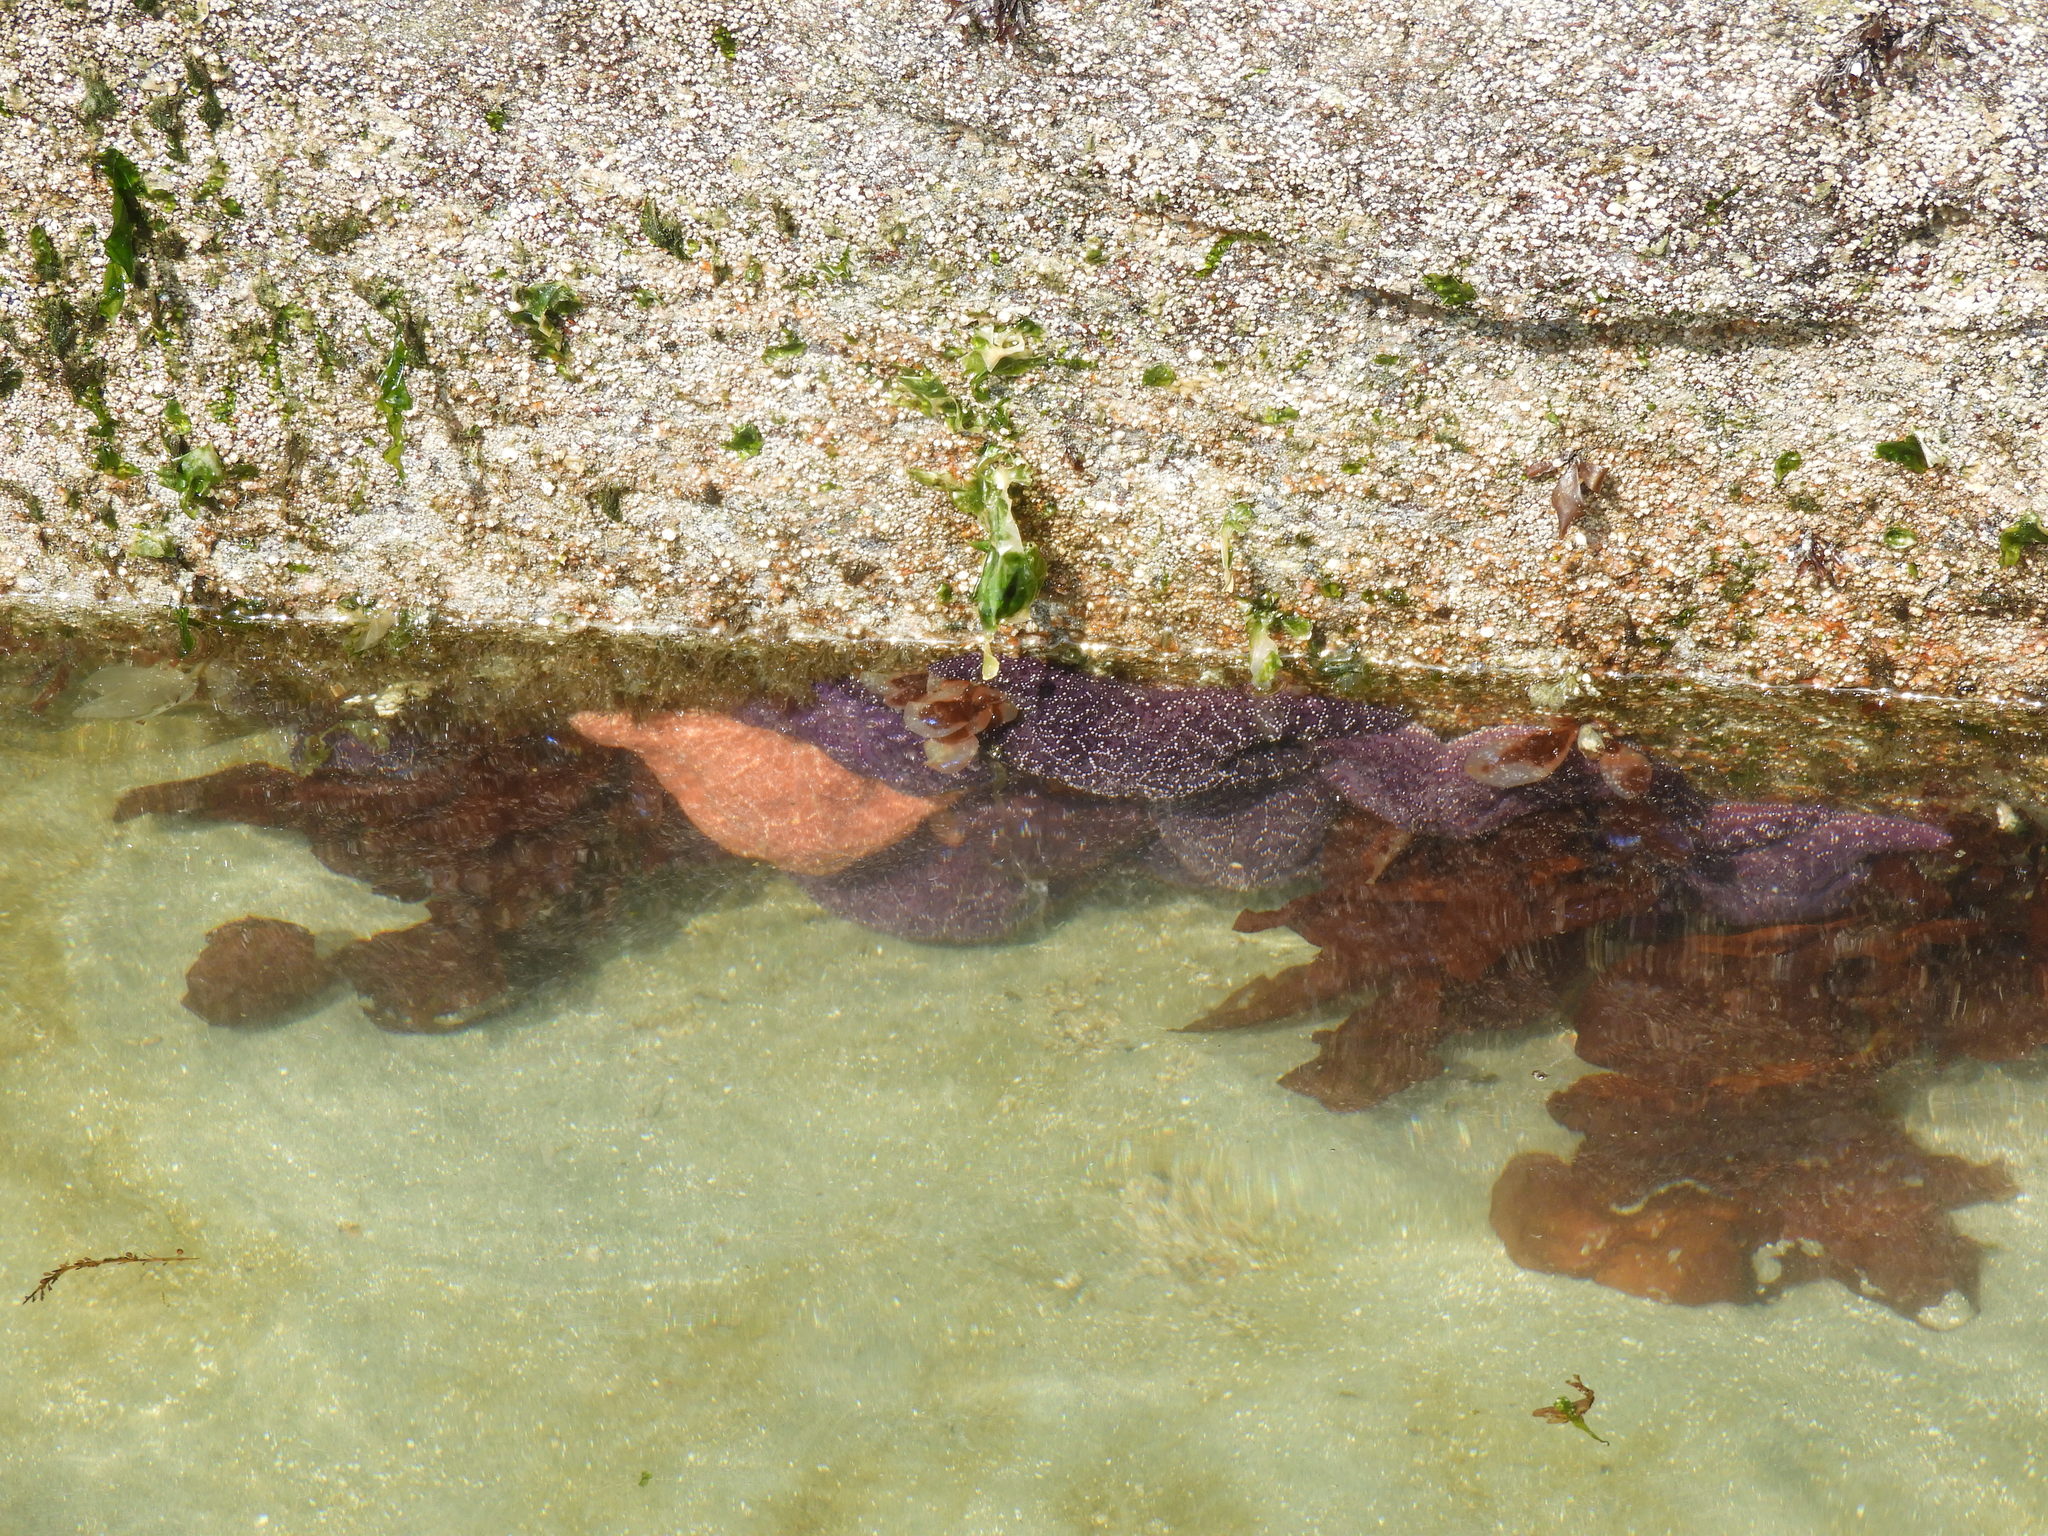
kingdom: Animalia
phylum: Echinodermata
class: Asteroidea
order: Forcipulatida
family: Asteriidae
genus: Pisaster
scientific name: Pisaster ochraceus
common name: Ochre stars
